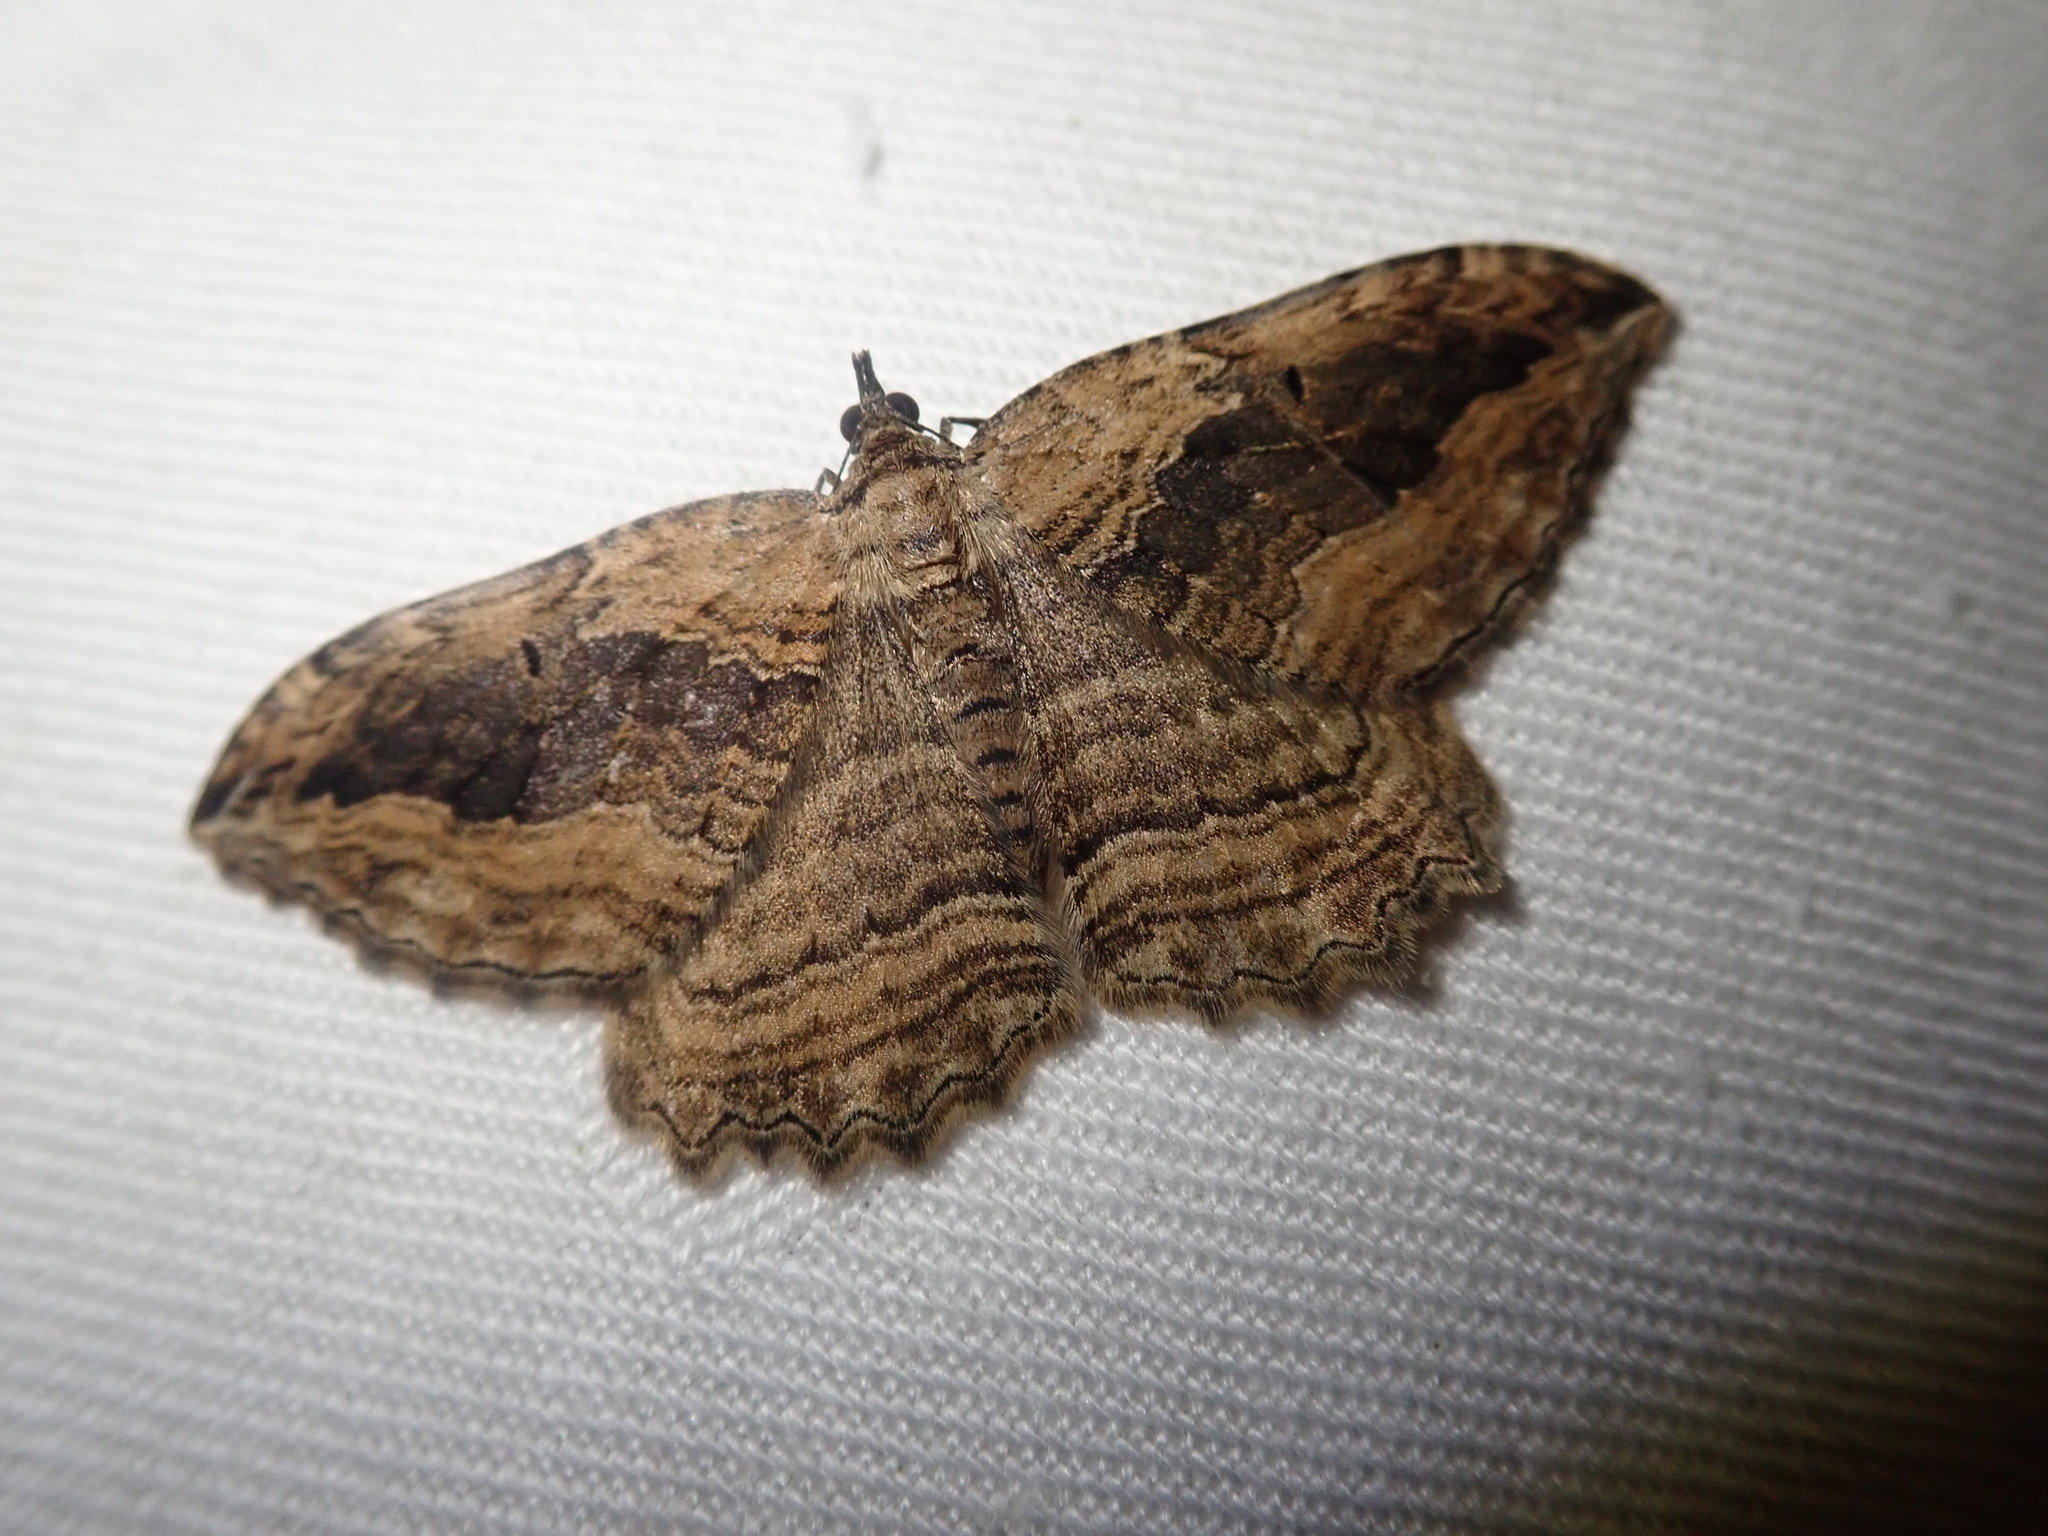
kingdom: Animalia
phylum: Arthropoda
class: Insecta
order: Lepidoptera
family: Geometridae
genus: Philereme
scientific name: Philereme transversata
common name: Dark umber
